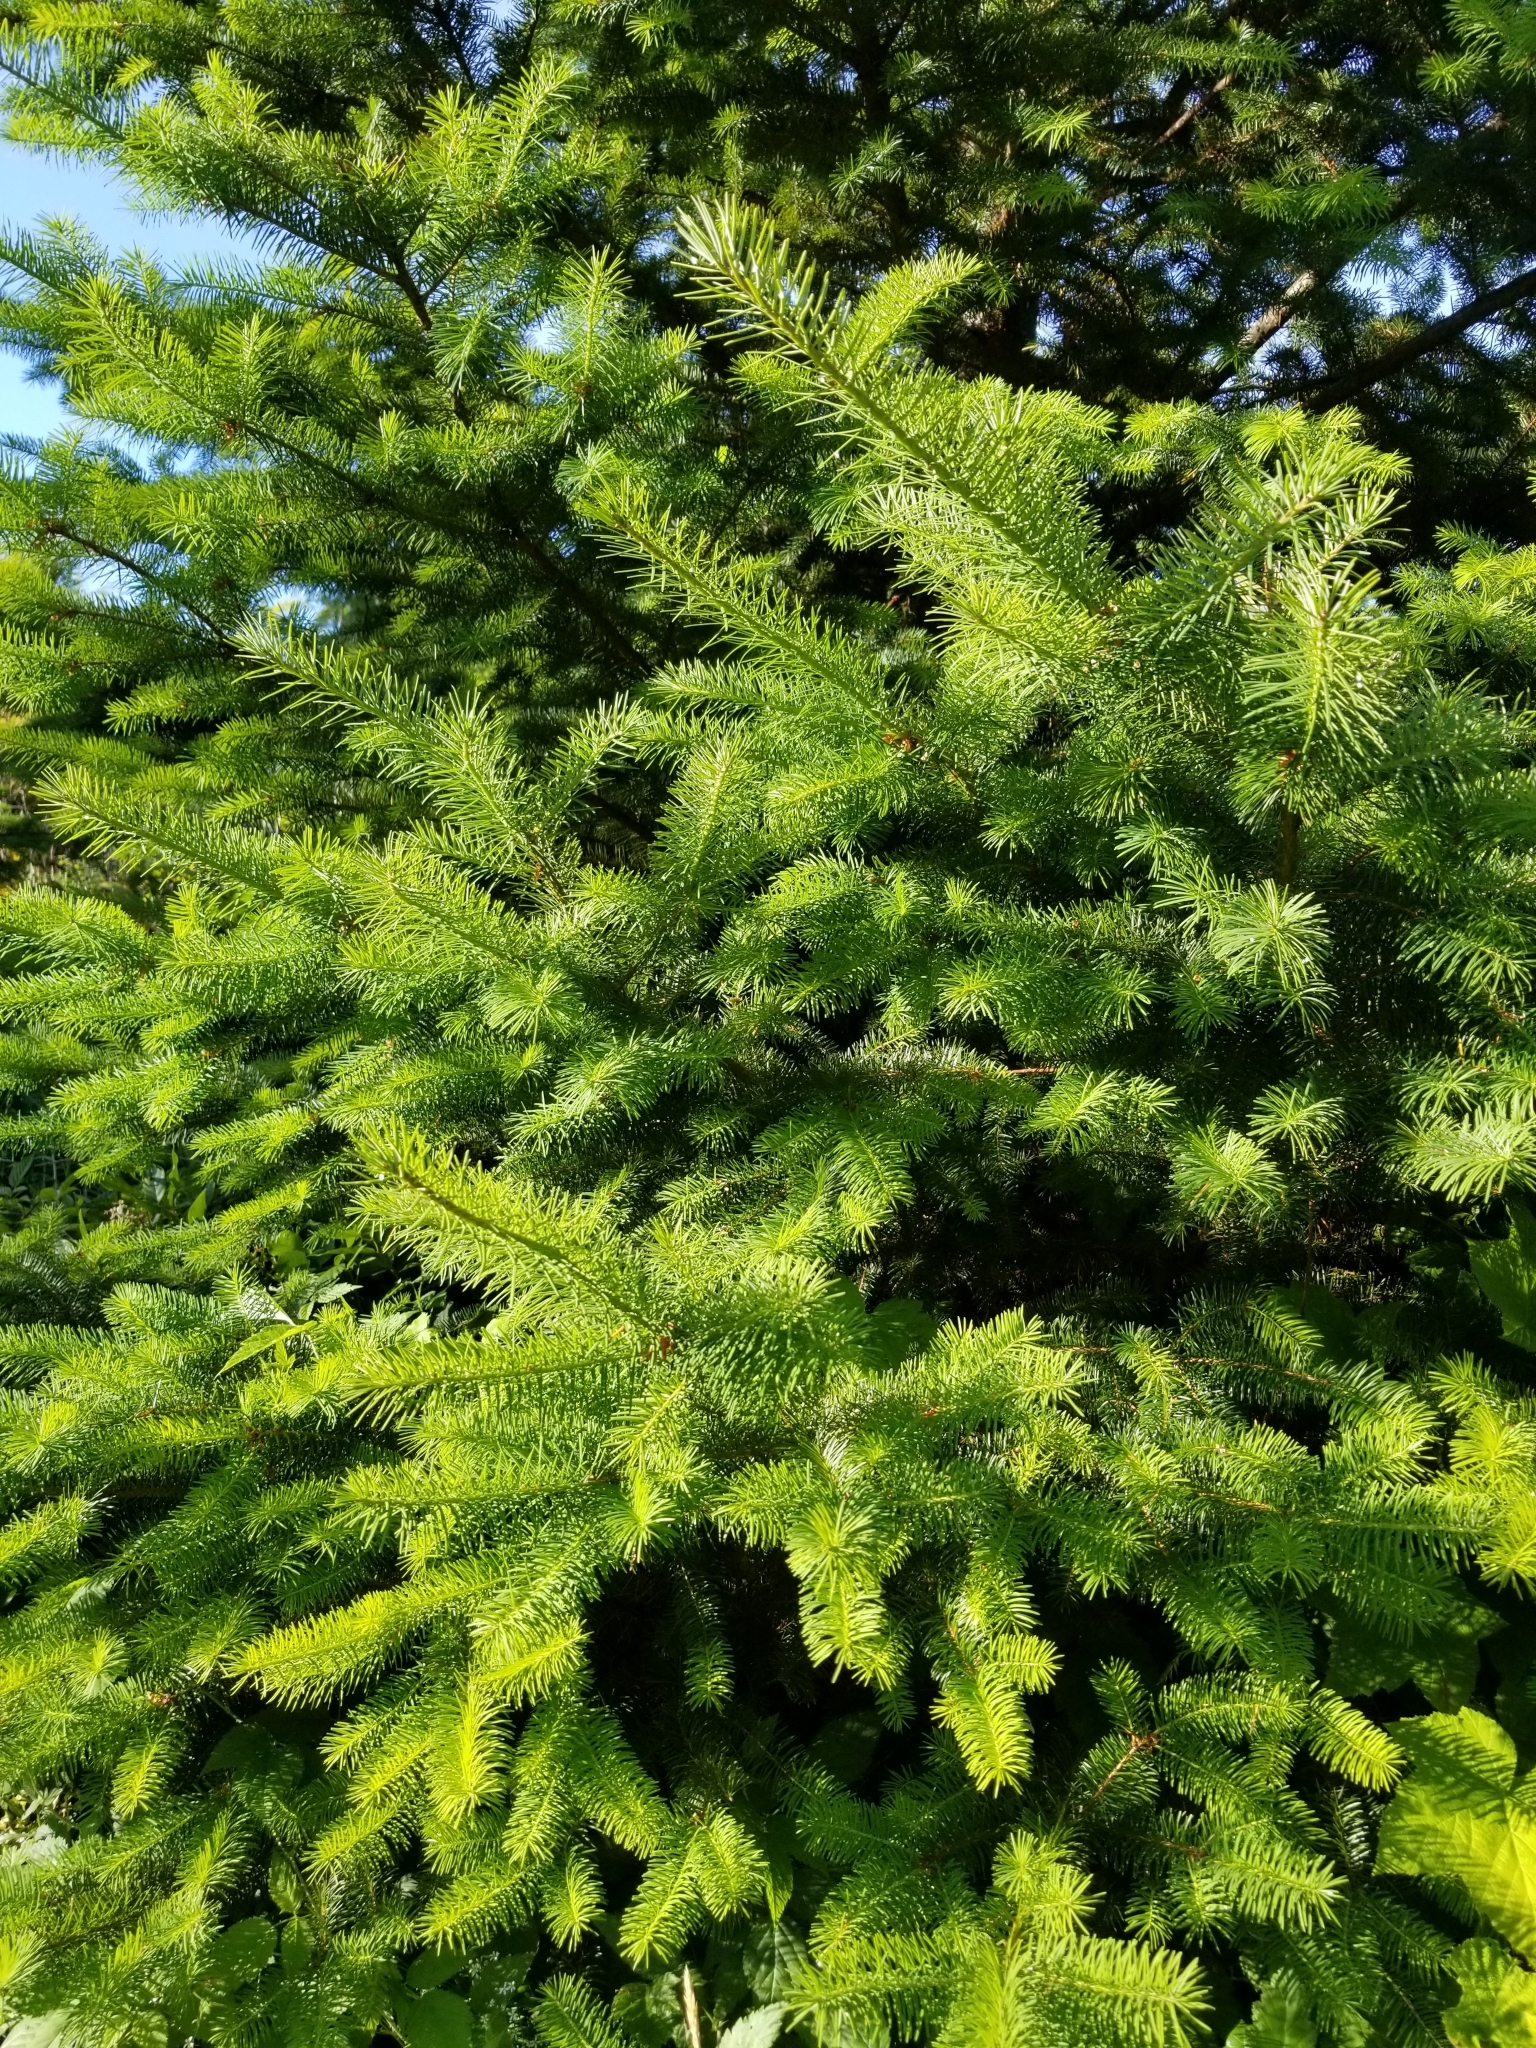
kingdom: Plantae
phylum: Tracheophyta
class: Pinopsida
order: Pinales
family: Pinaceae
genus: Pseudotsuga
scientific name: Pseudotsuga menziesii
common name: Douglas fir
